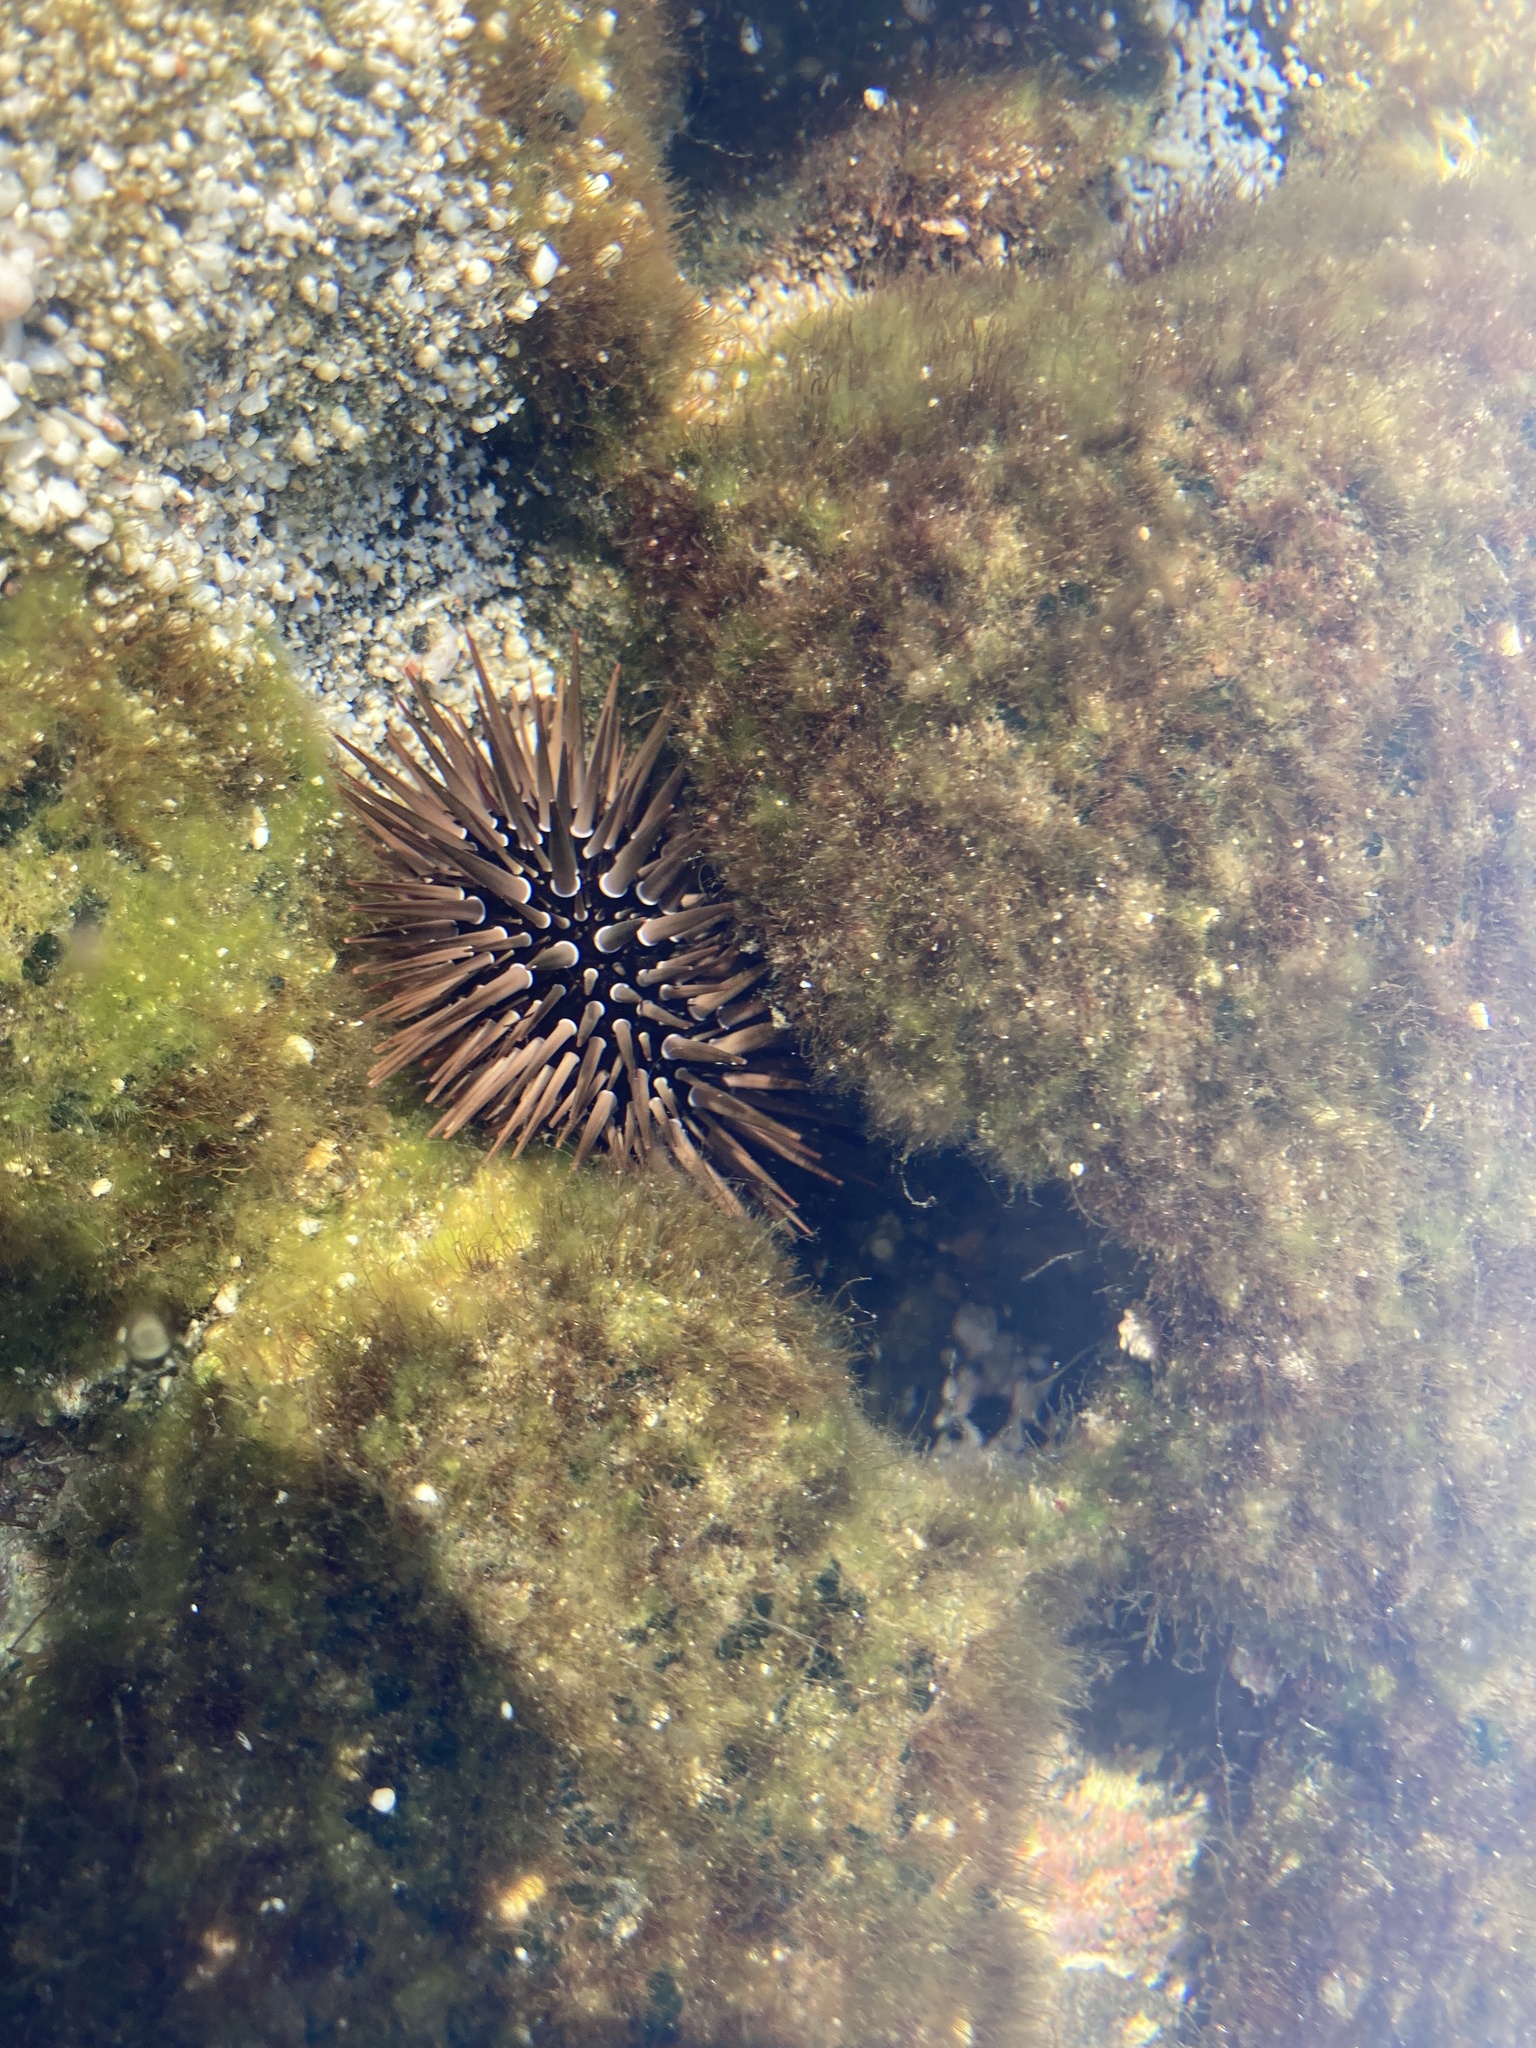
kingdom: Animalia
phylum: Echinodermata
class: Echinoidea
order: Camarodonta
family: Echinometridae
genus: Echinometra
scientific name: Echinometra mathaei
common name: Rock-boring urchin
